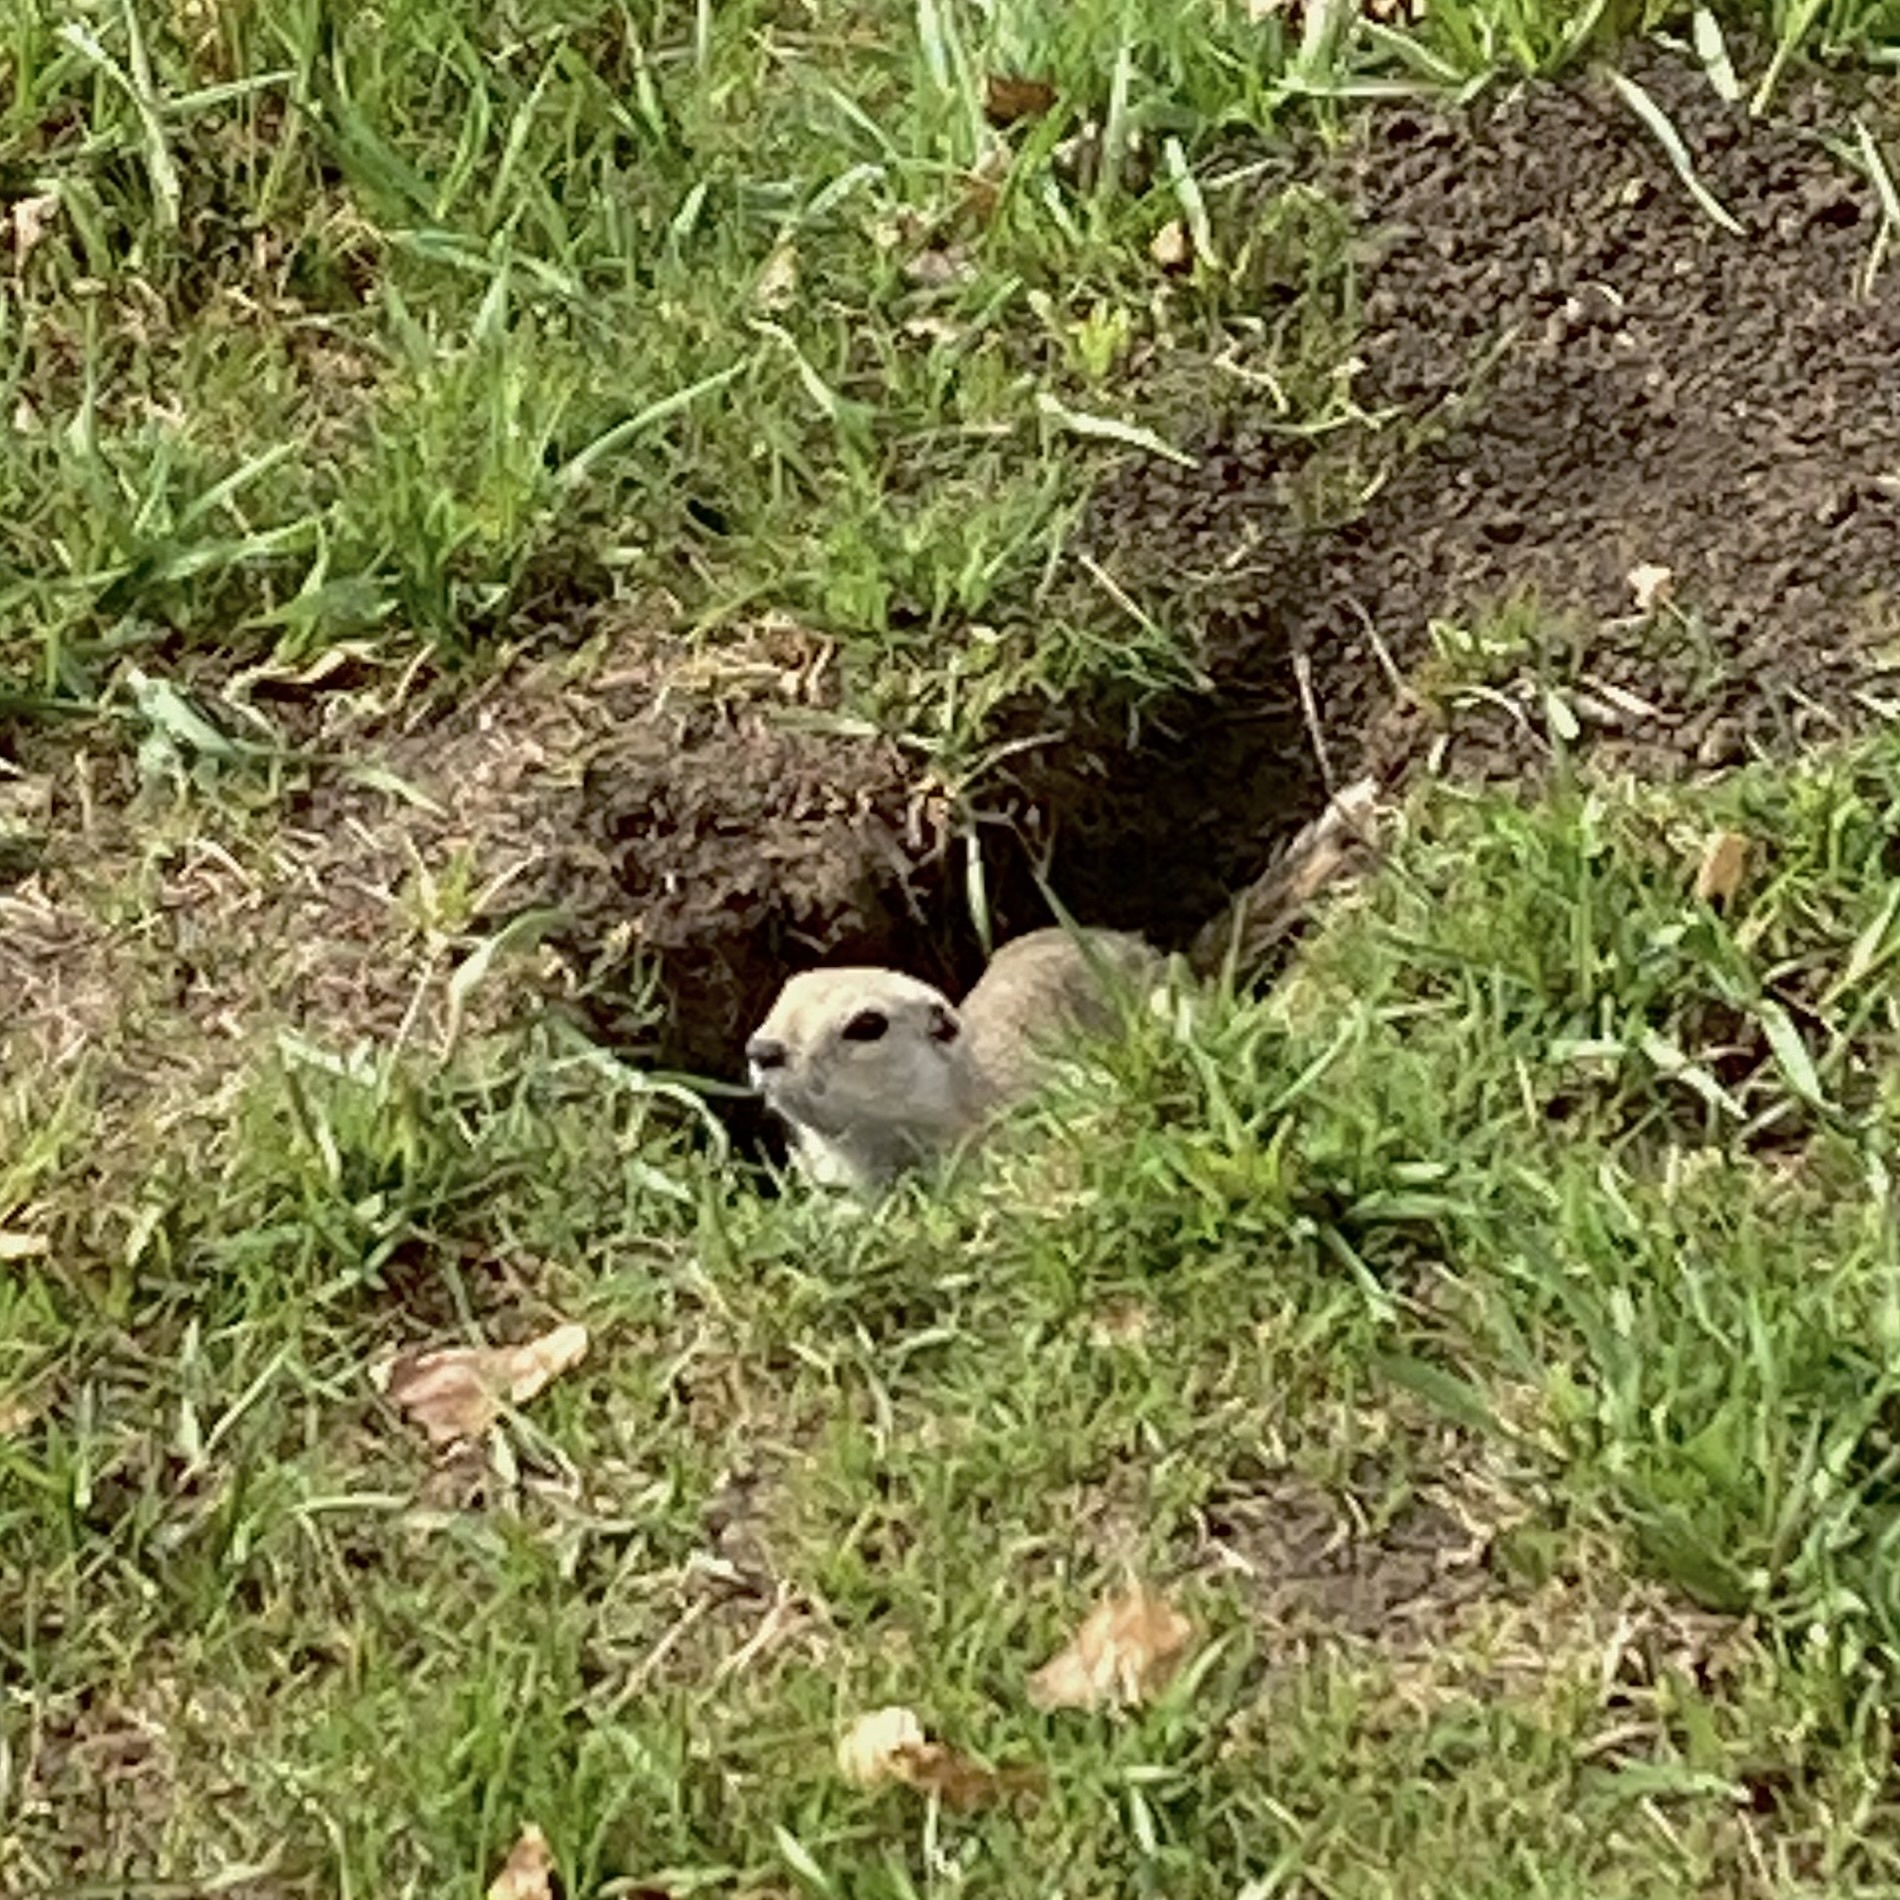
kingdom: Animalia
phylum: Chordata
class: Mammalia
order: Rodentia
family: Sciuridae
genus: Urocitellus
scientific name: Urocitellus richardsonii
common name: Richardson's ground squirrel
